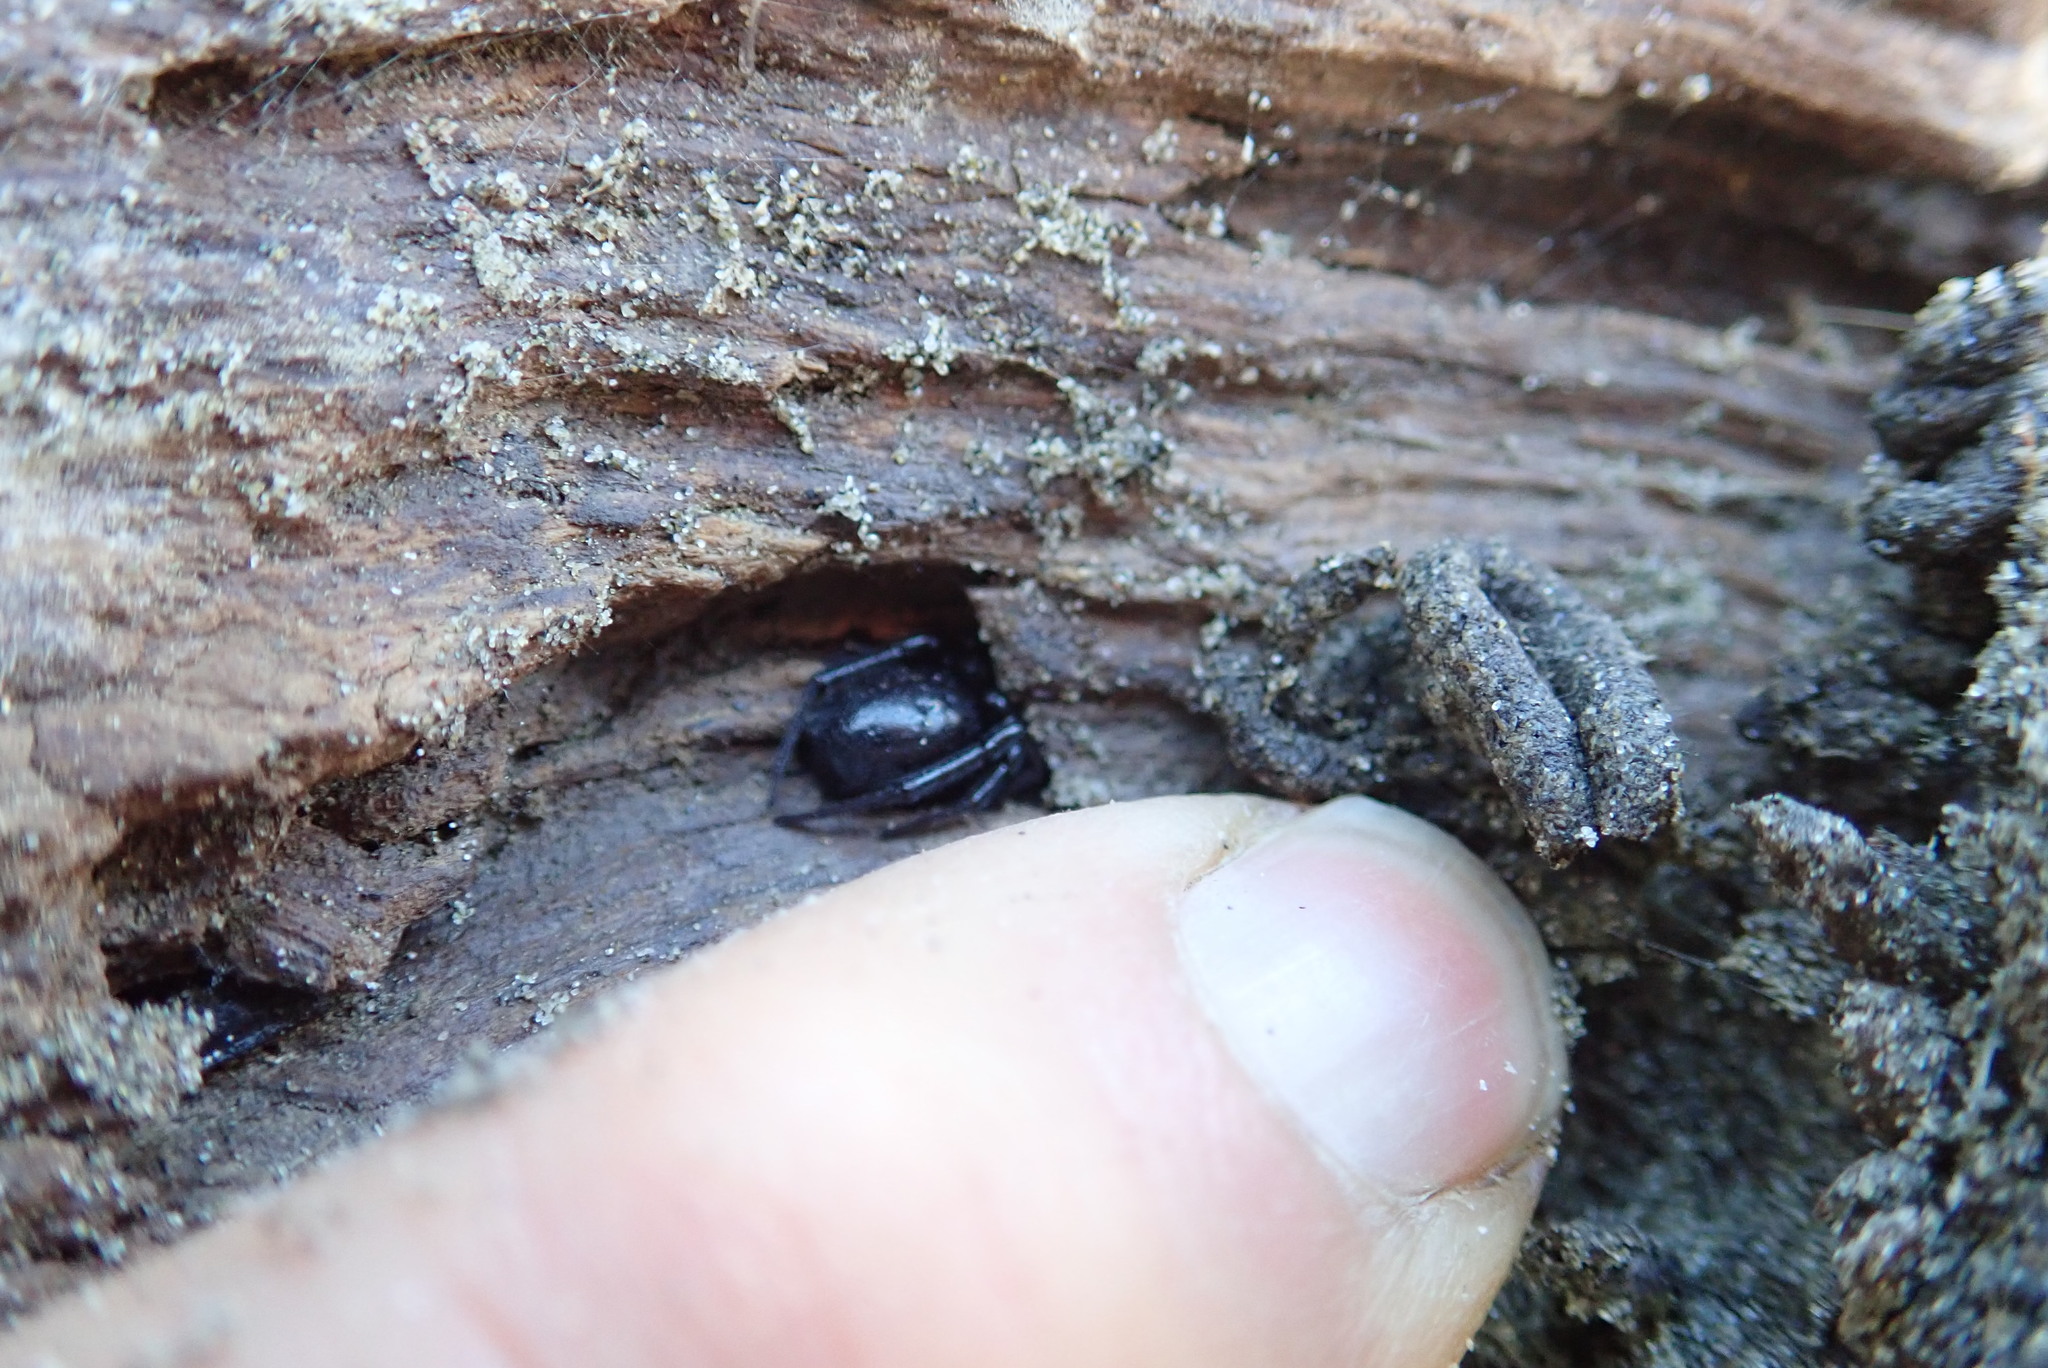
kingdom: Animalia
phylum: Arthropoda
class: Arachnida
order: Araneae
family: Theridiidae
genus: Steatoda
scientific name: Steatoda capensis
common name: Cobweb weaver
